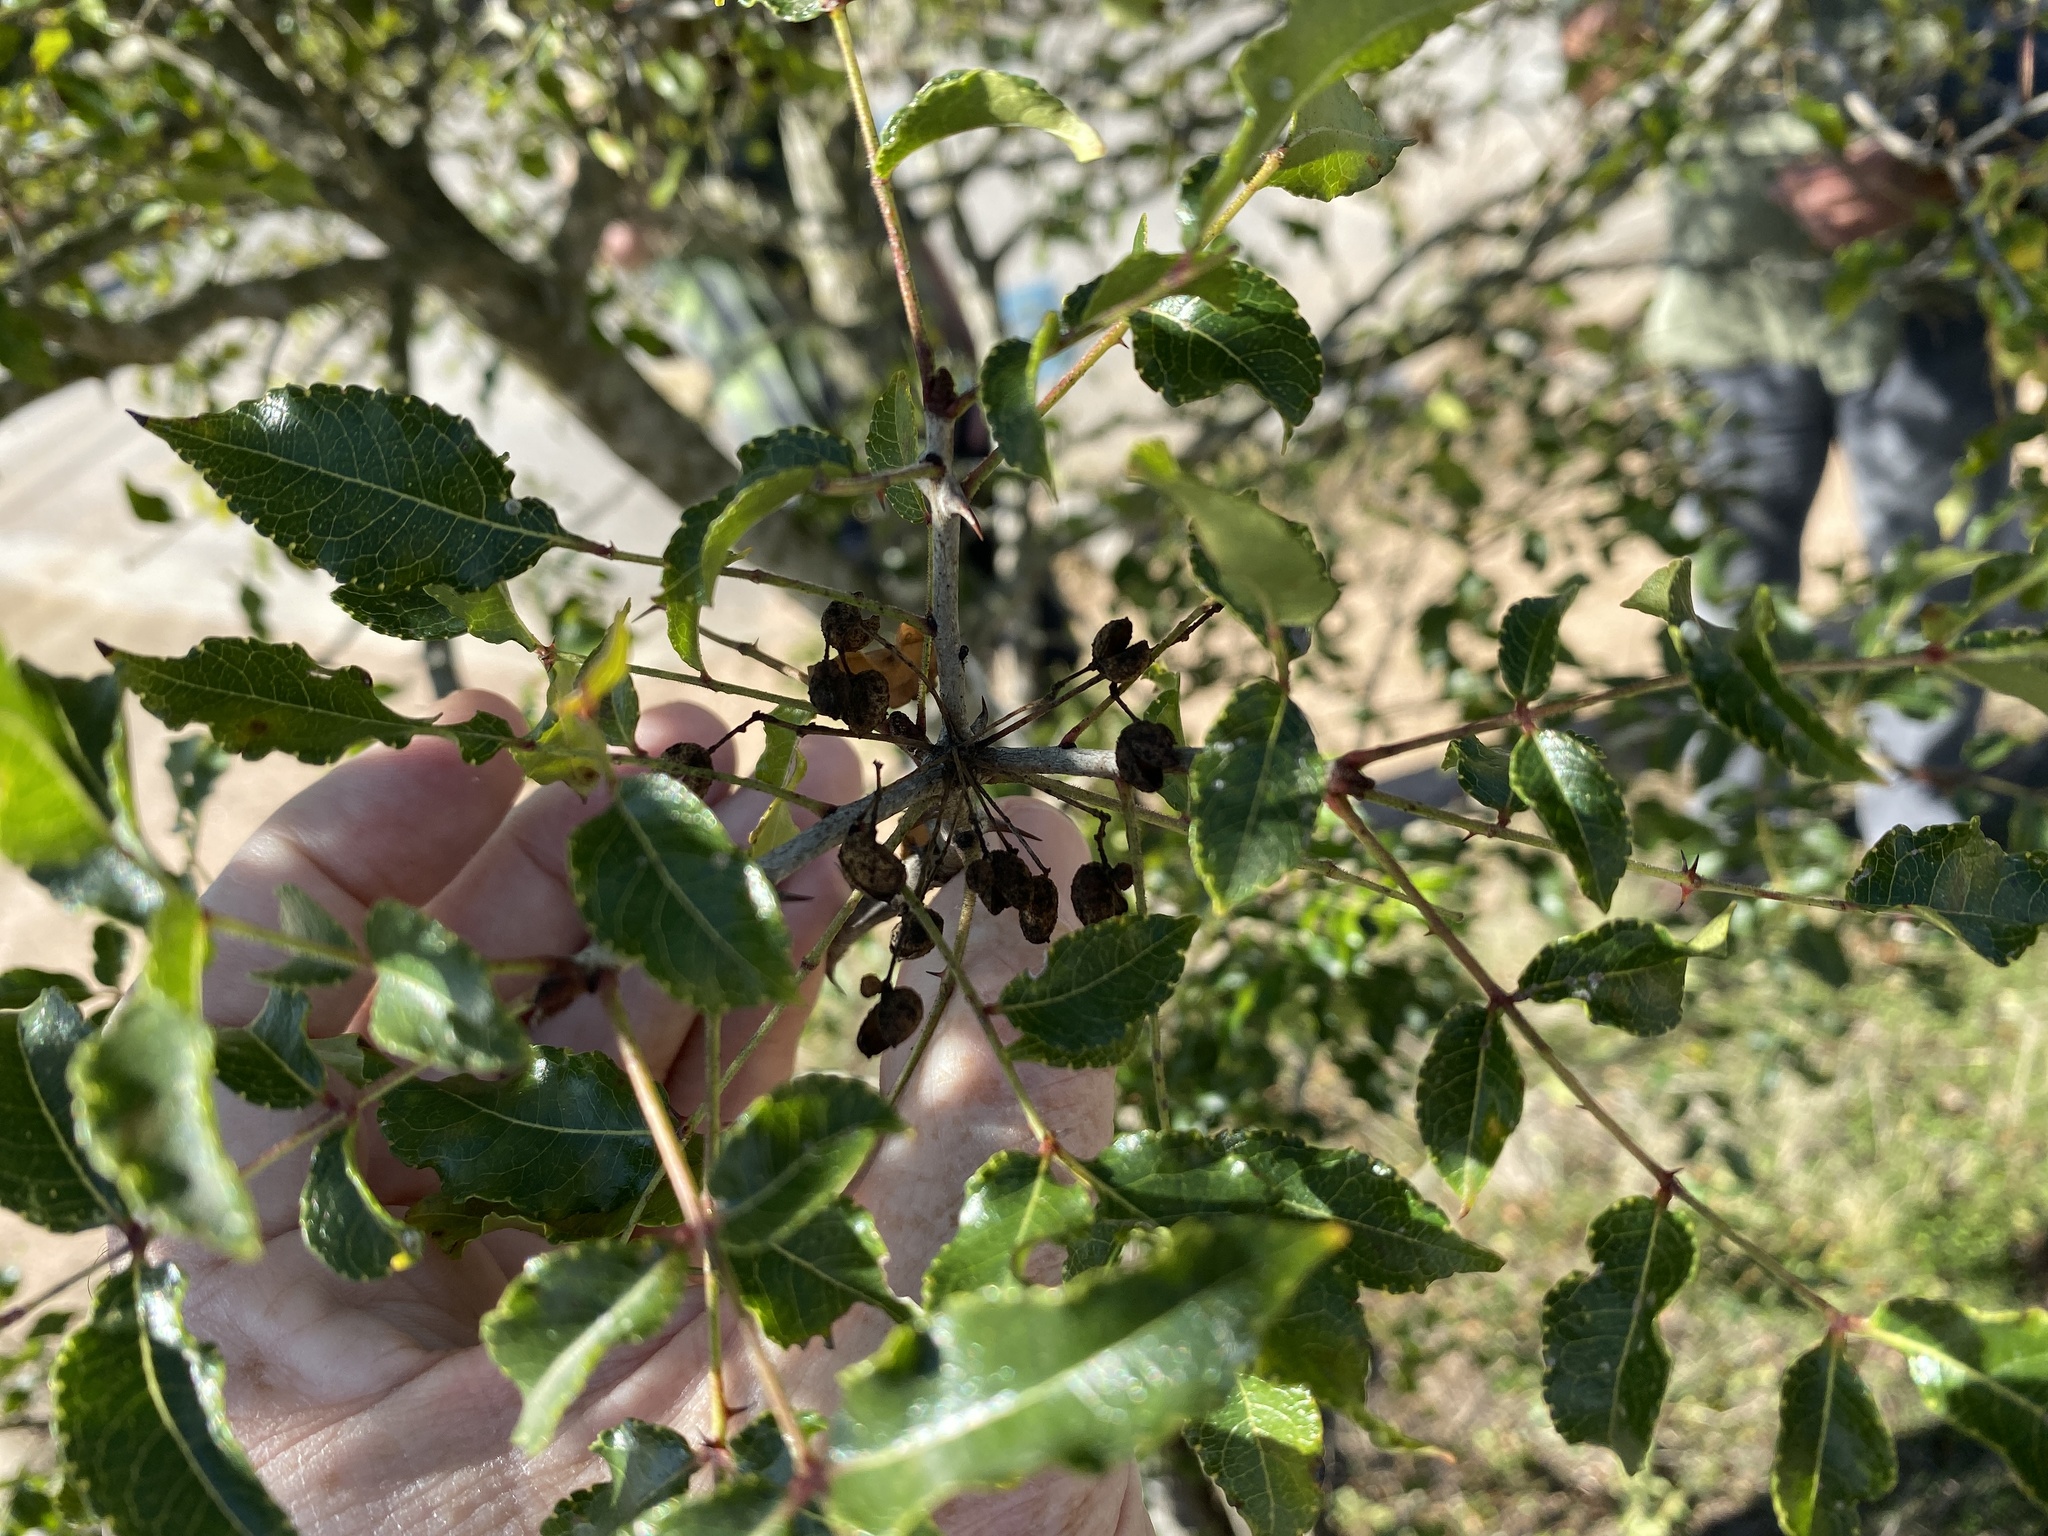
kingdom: Plantae
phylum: Tracheophyta
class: Magnoliopsida
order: Sapindales
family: Rutaceae
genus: Zanthoxylum
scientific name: Zanthoxylum clava-herculis
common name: Hercules'-club
